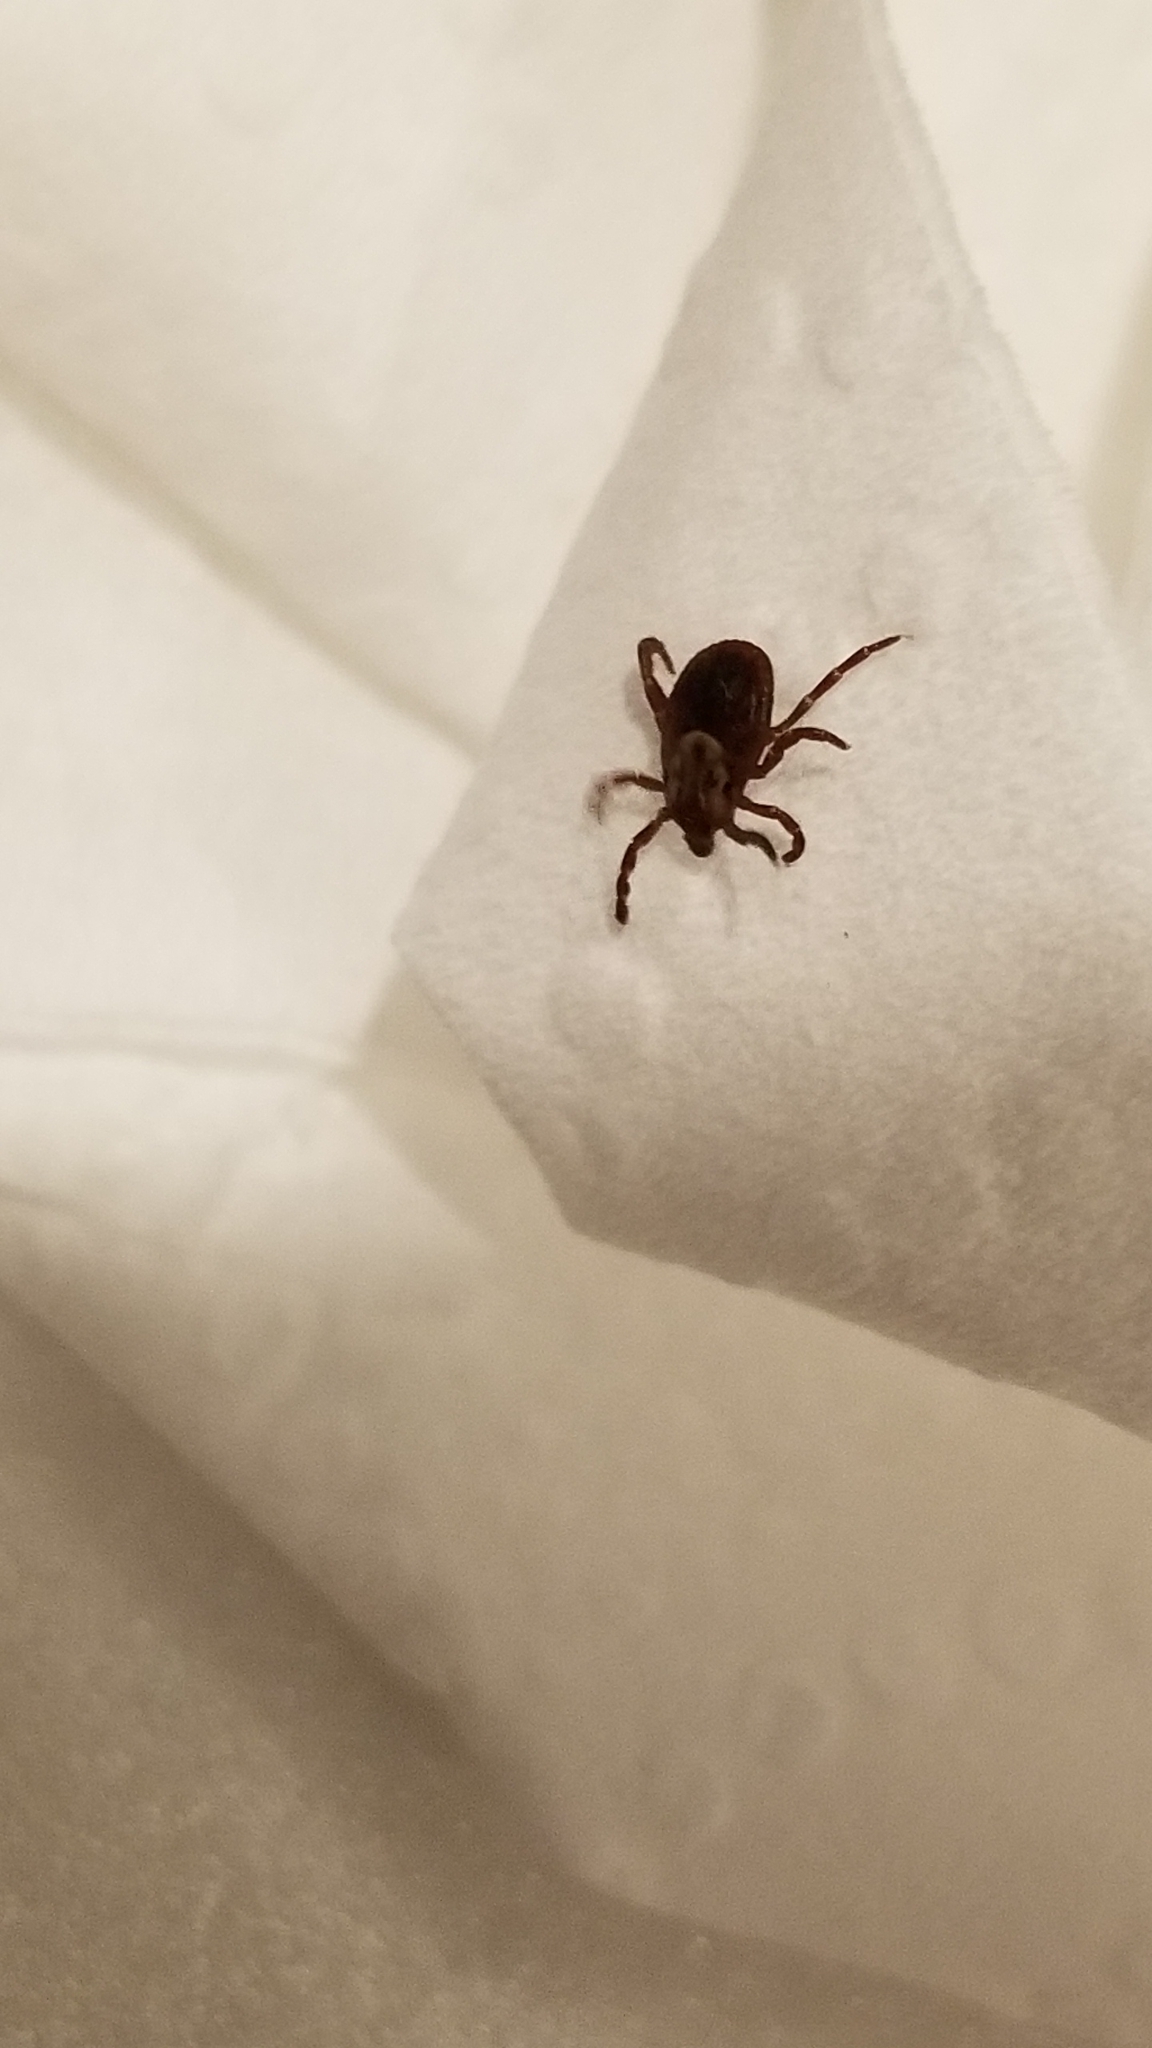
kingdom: Animalia
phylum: Arthropoda
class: Arachnida
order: Ixodida
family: Ixodidae
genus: Dermacentor
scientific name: Dermacentor variabilis
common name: American dog tick
